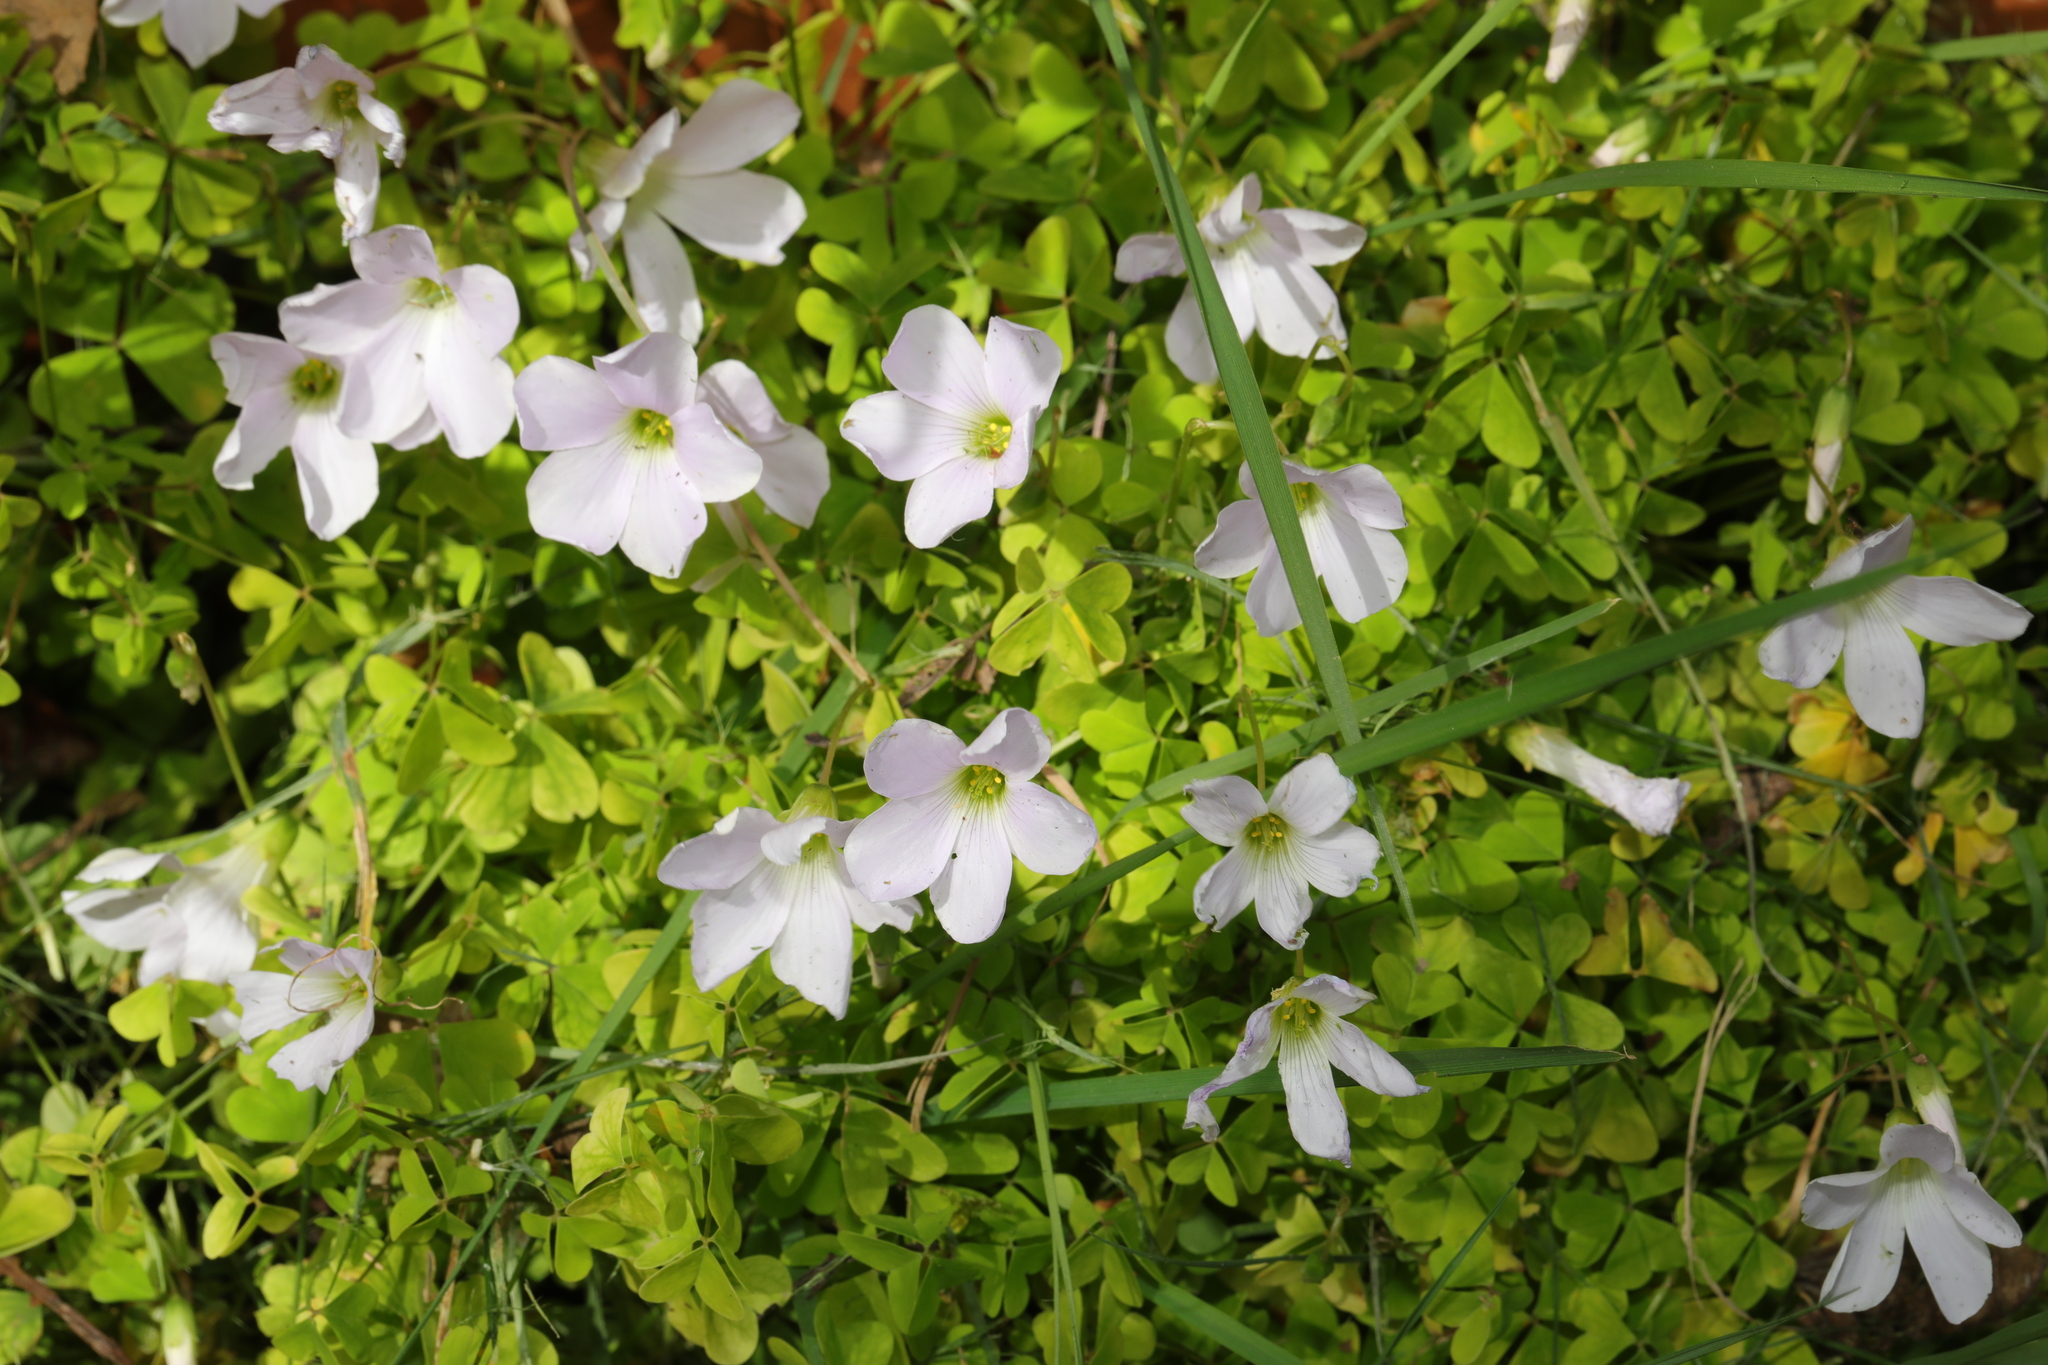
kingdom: Plantae
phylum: Tracheophyta
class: Magnoliopsida
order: Oxalidales
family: Oxalidaceae
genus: Oxalis
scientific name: Oxalis incarnata
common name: Pale pink-sorrel
